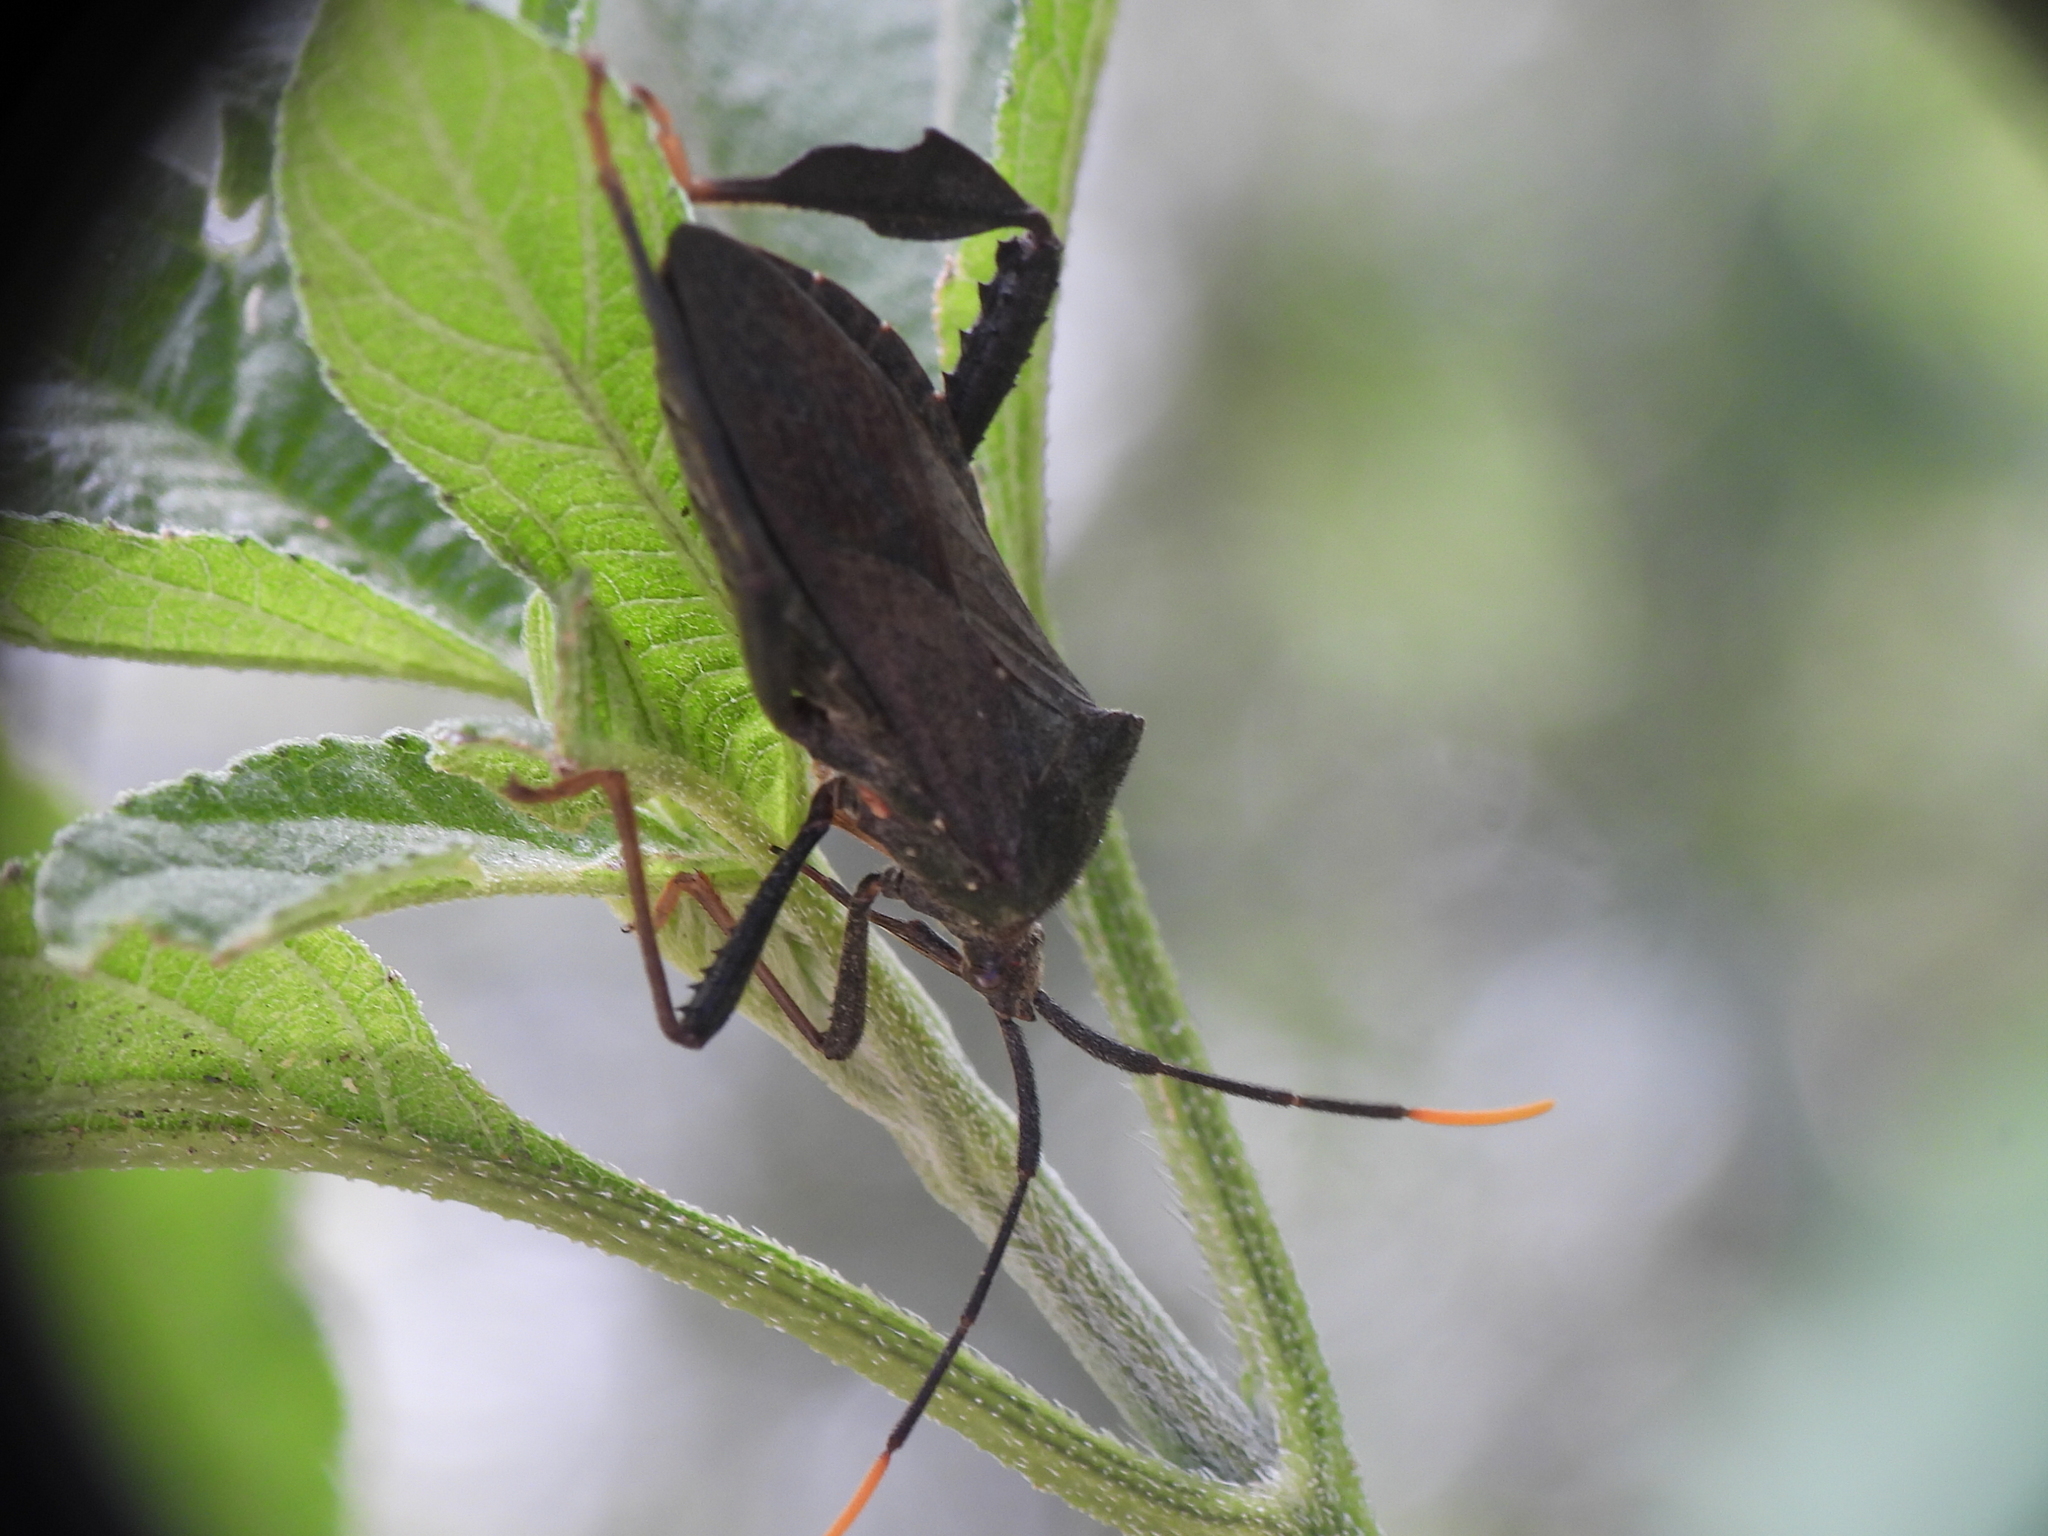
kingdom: Animalia
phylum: Arthropoda
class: Insecta
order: Hemiptera
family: Coreidae
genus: Acanthocephala
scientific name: Acanthocephala terminalis
